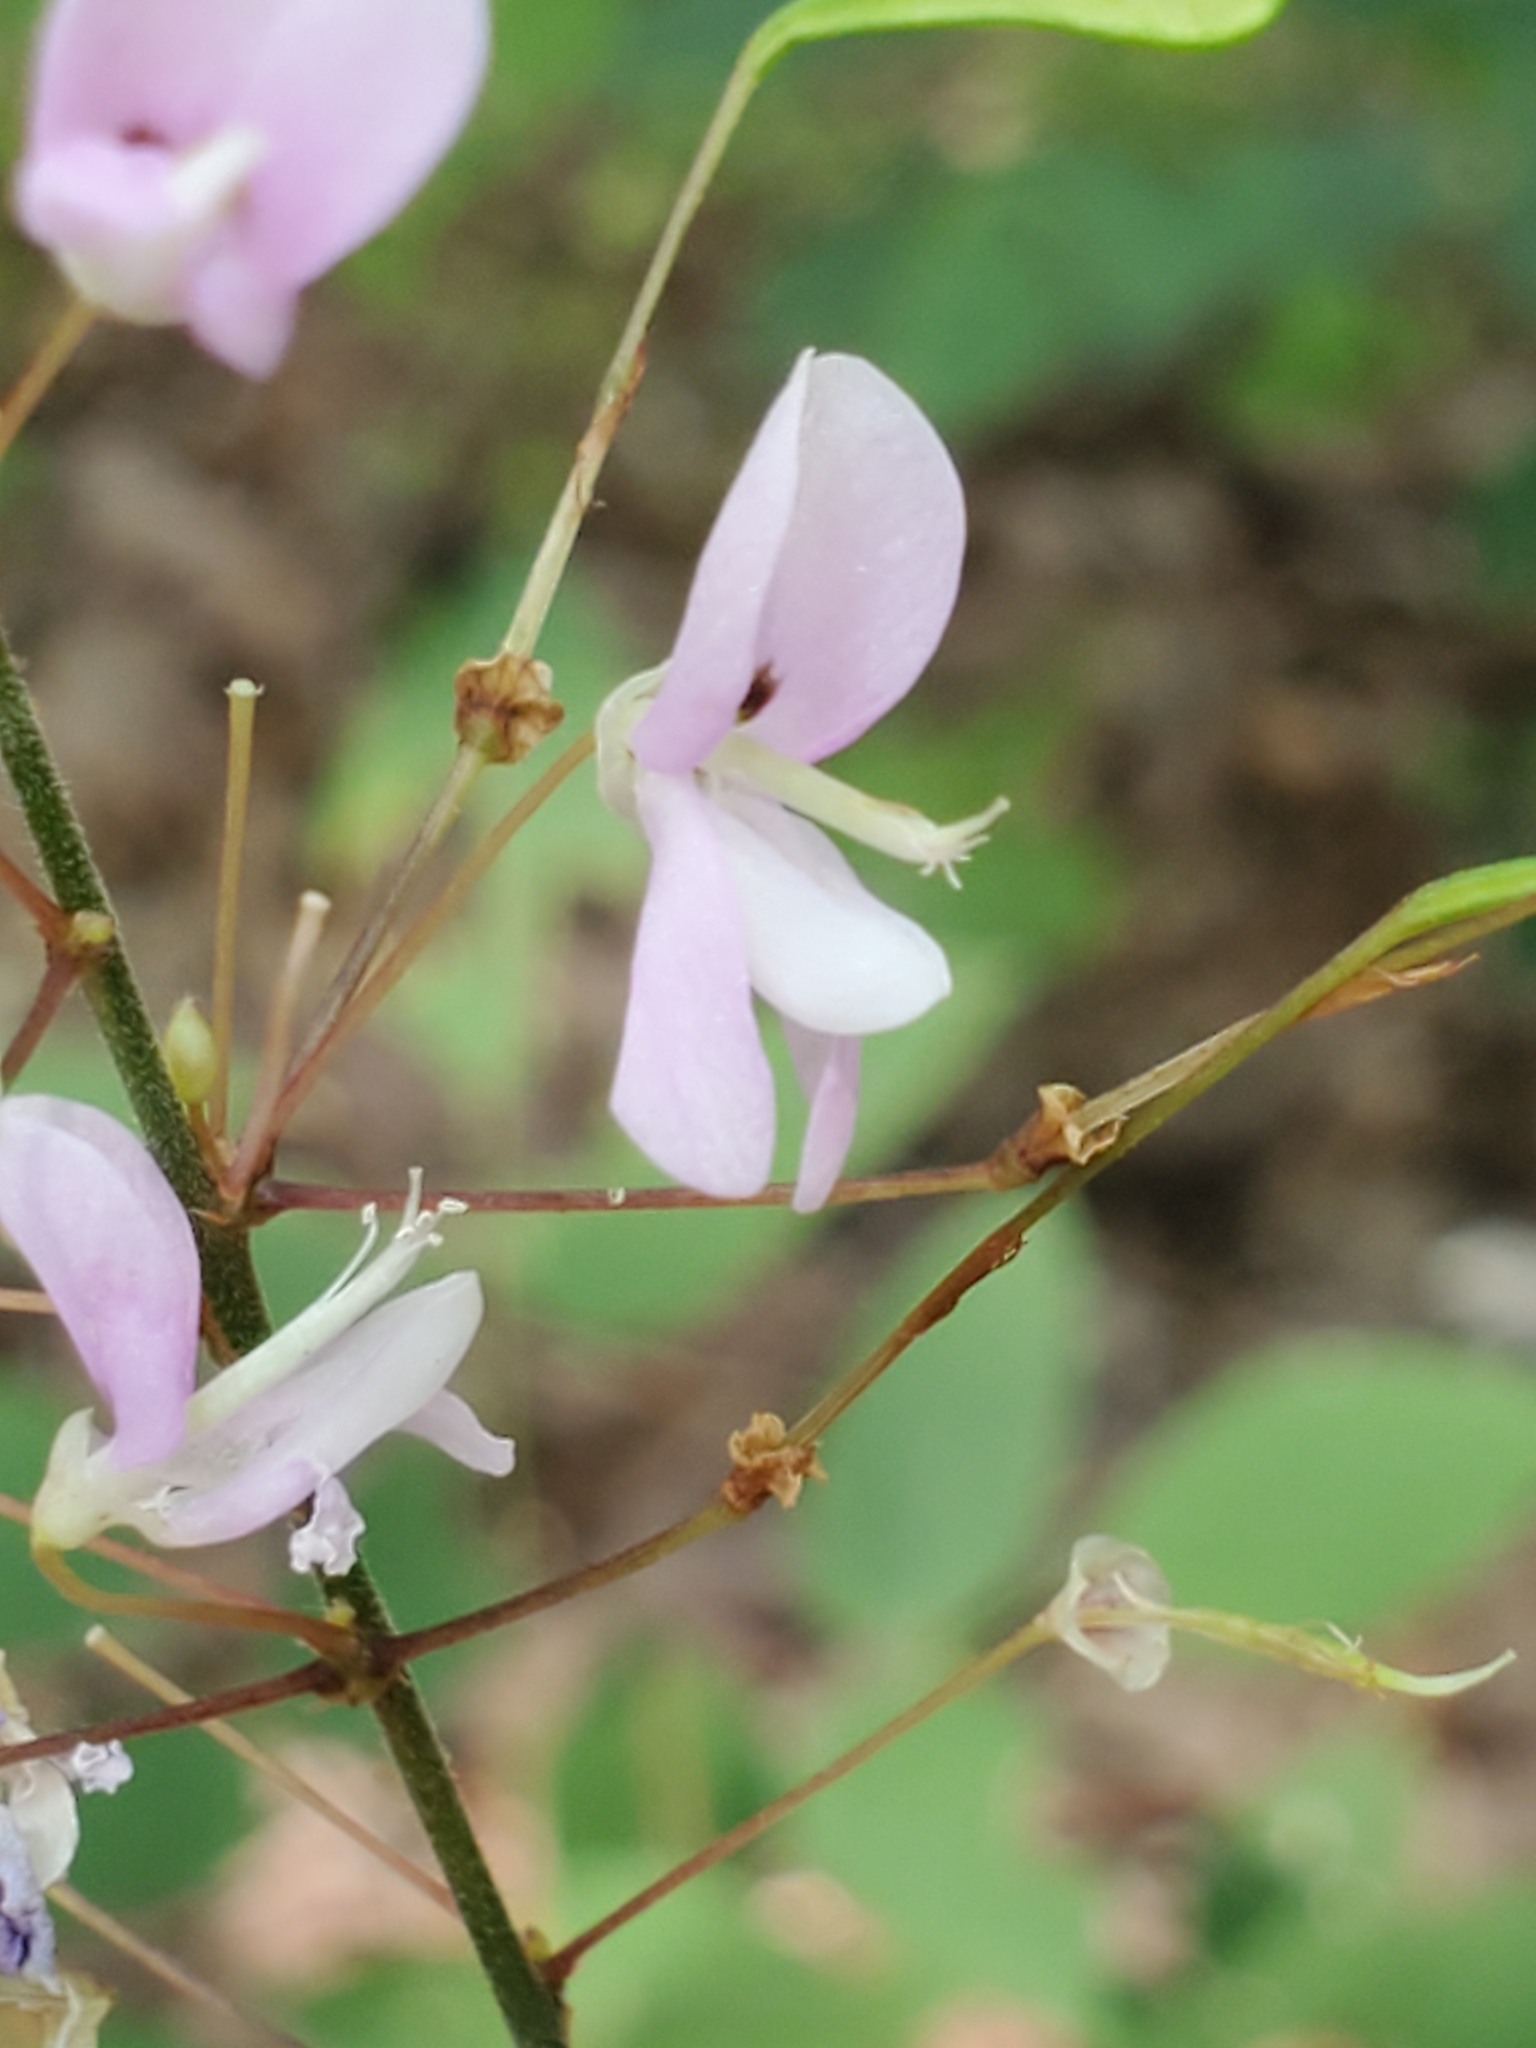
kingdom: Plantae
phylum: Tracheophyta
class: Magnoliopsida
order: Fabales
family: Fabaceae
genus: Hylodesmum
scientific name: Hylodesmum nudiflorum
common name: Bare-stemmed tick-trefoil
